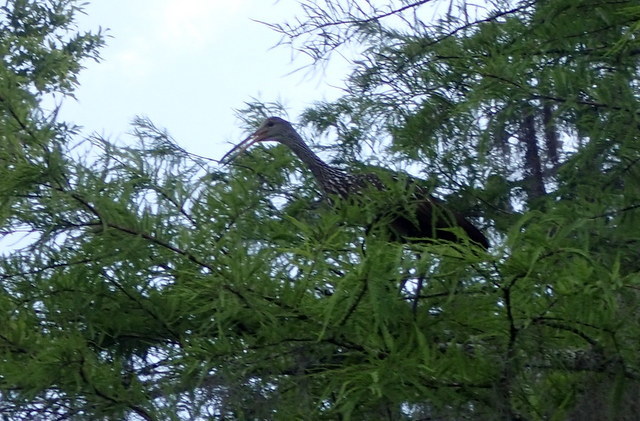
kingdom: Animalia
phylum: Chordata
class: Aves
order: Gruiformes
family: Aramidae
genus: Aramus
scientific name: Aramus guarauna
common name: Limpkin
